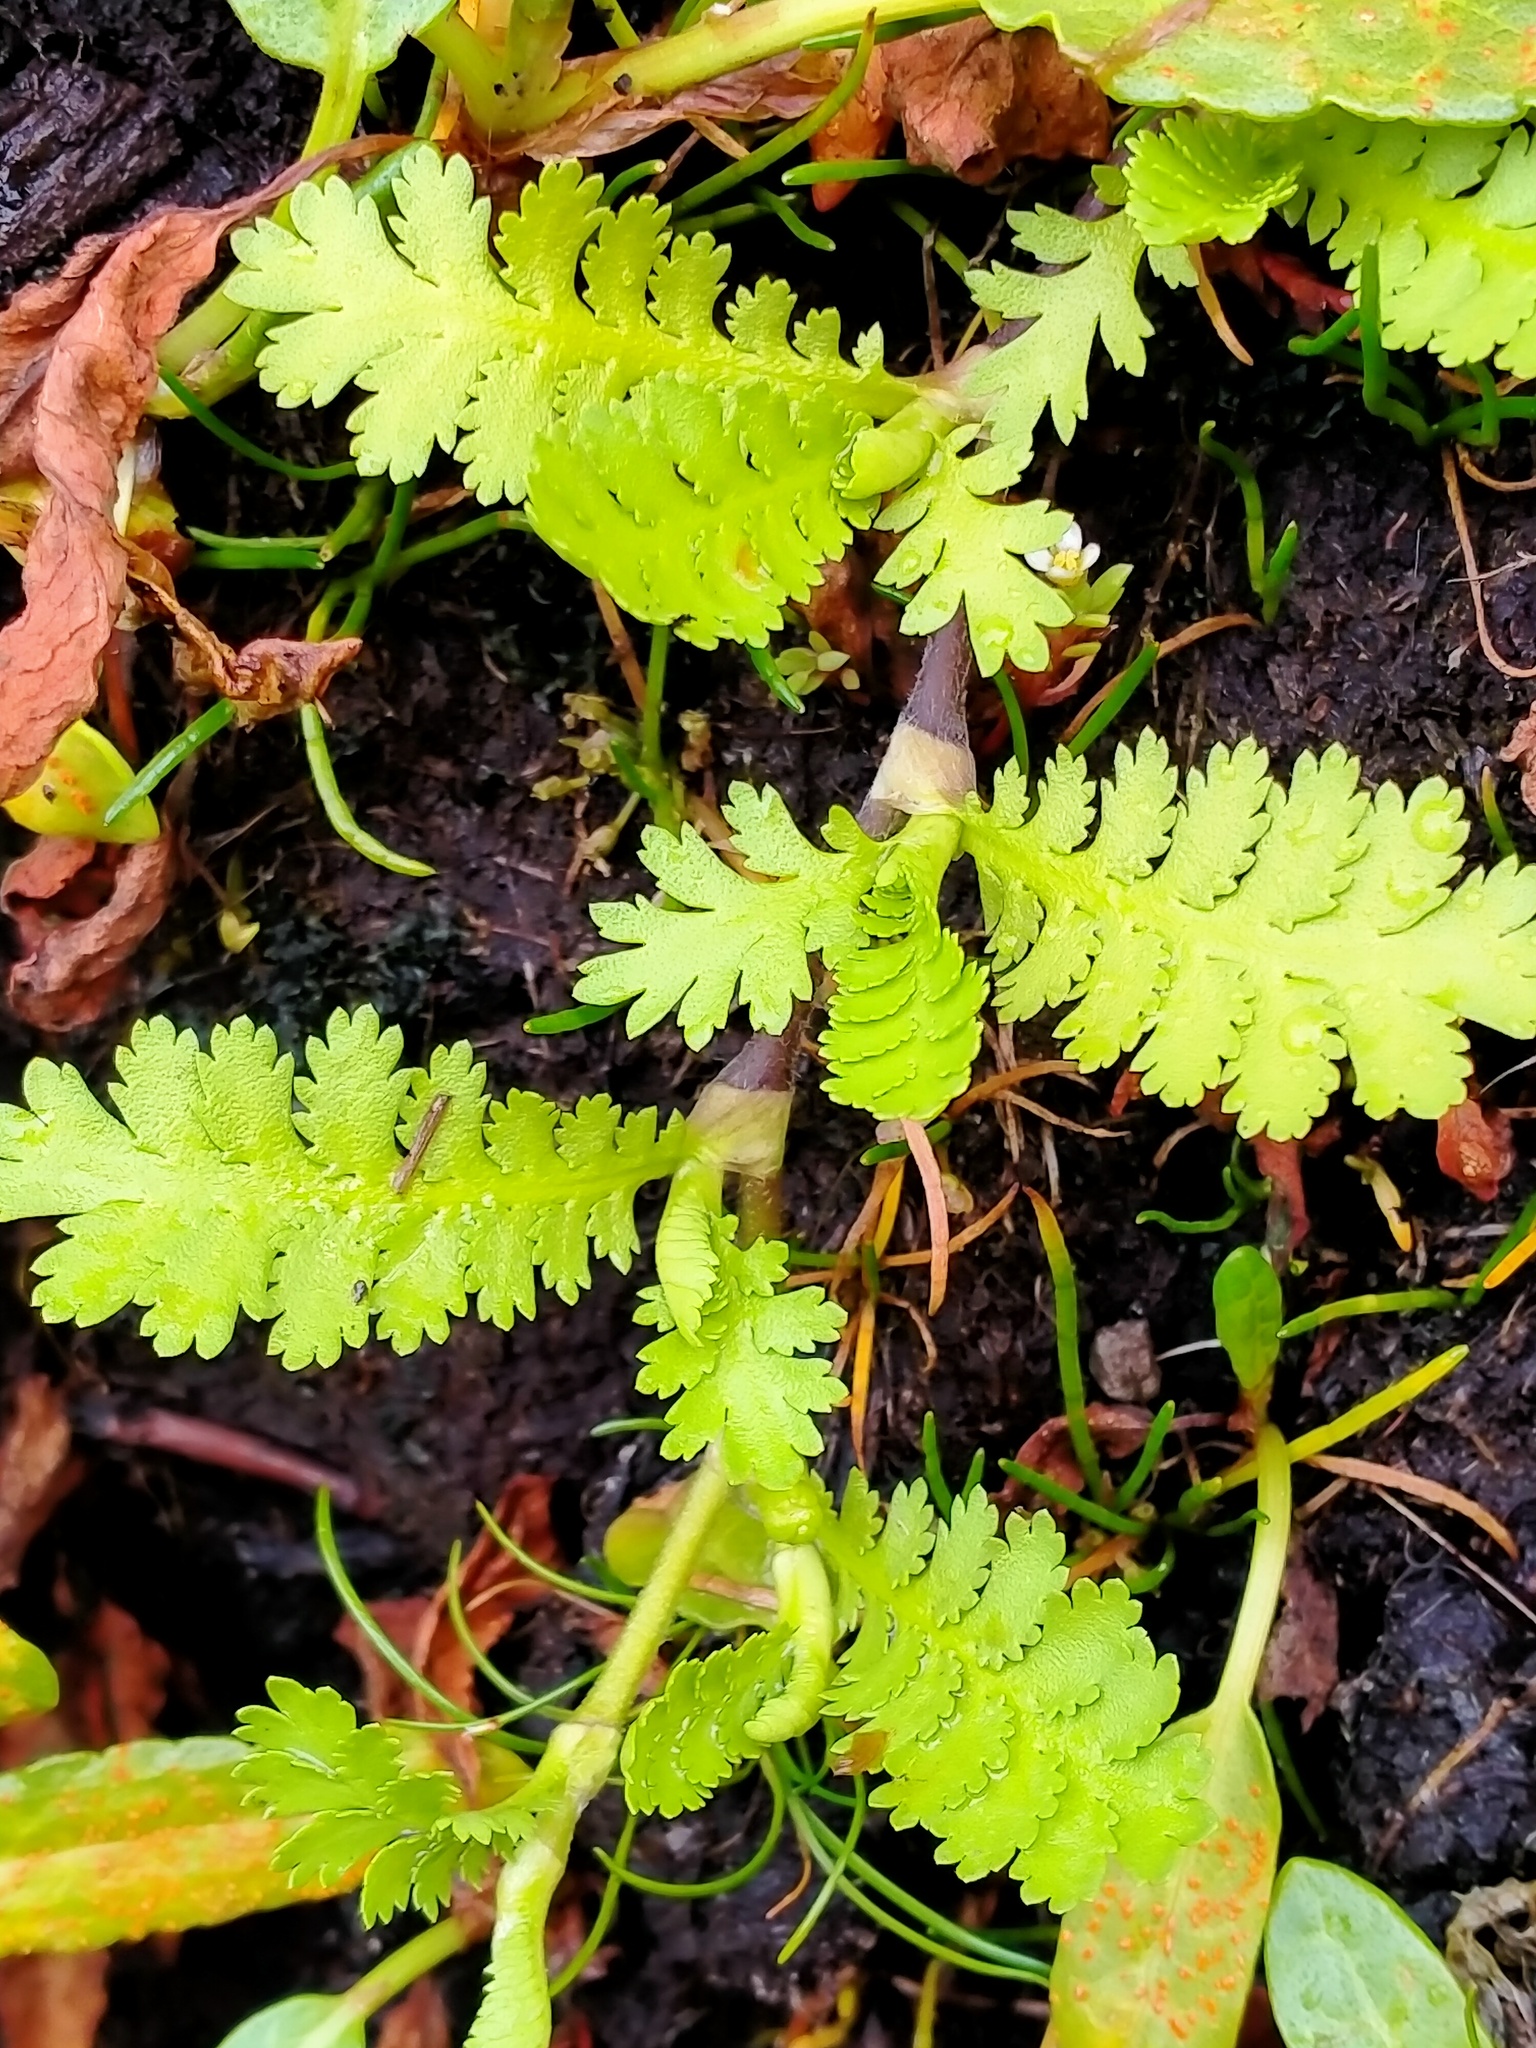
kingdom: Plantae
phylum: Tracheophyta
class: Magnoliopsida
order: Asterales
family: Asteraceae
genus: Leptinella
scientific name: Leptinella potentillina
